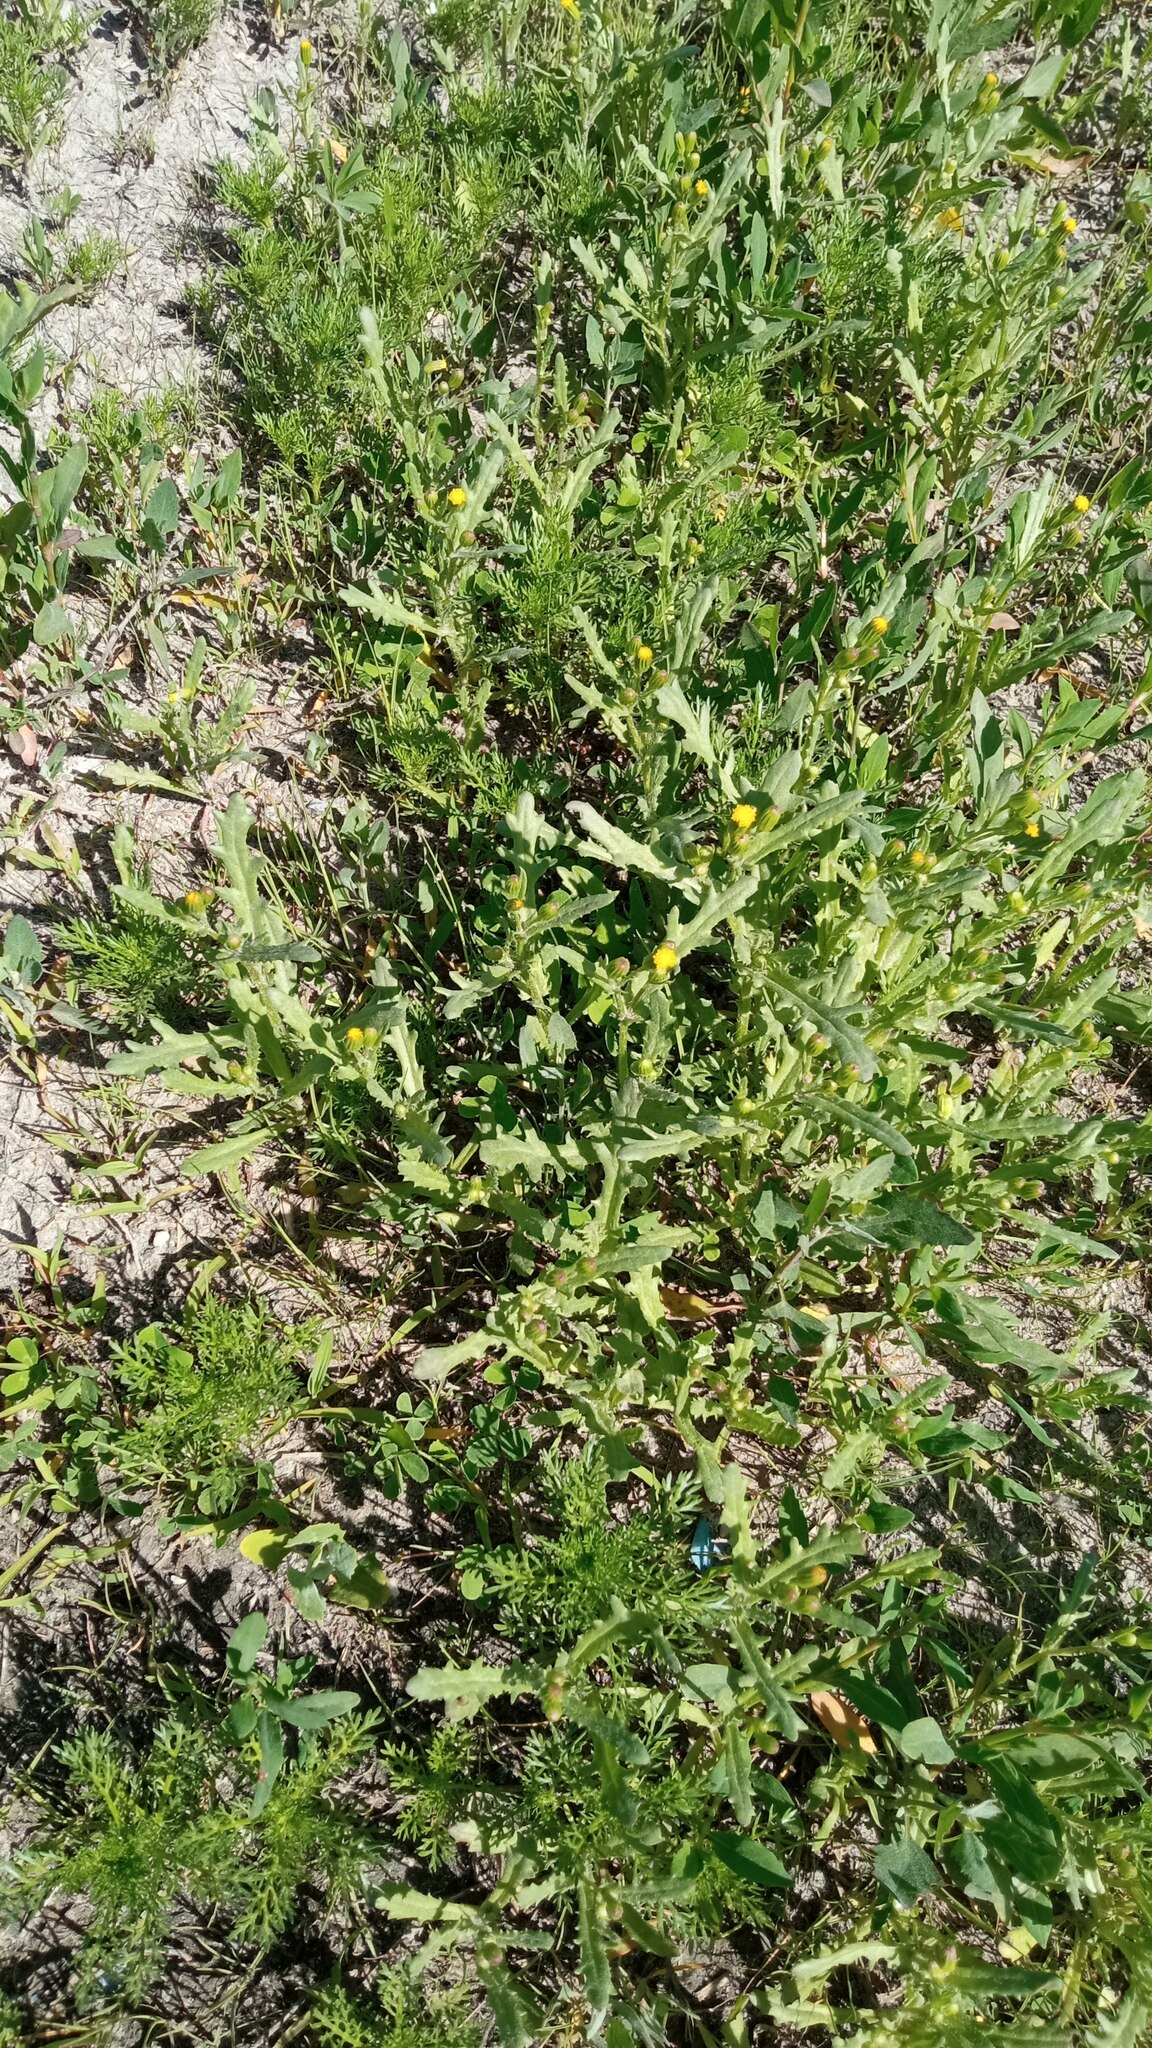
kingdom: Plantae
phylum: Tracheophyta
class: Magnoliopsida
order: Asterales
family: Asteraceae
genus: Senecio
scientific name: Senecio dubitabilis
